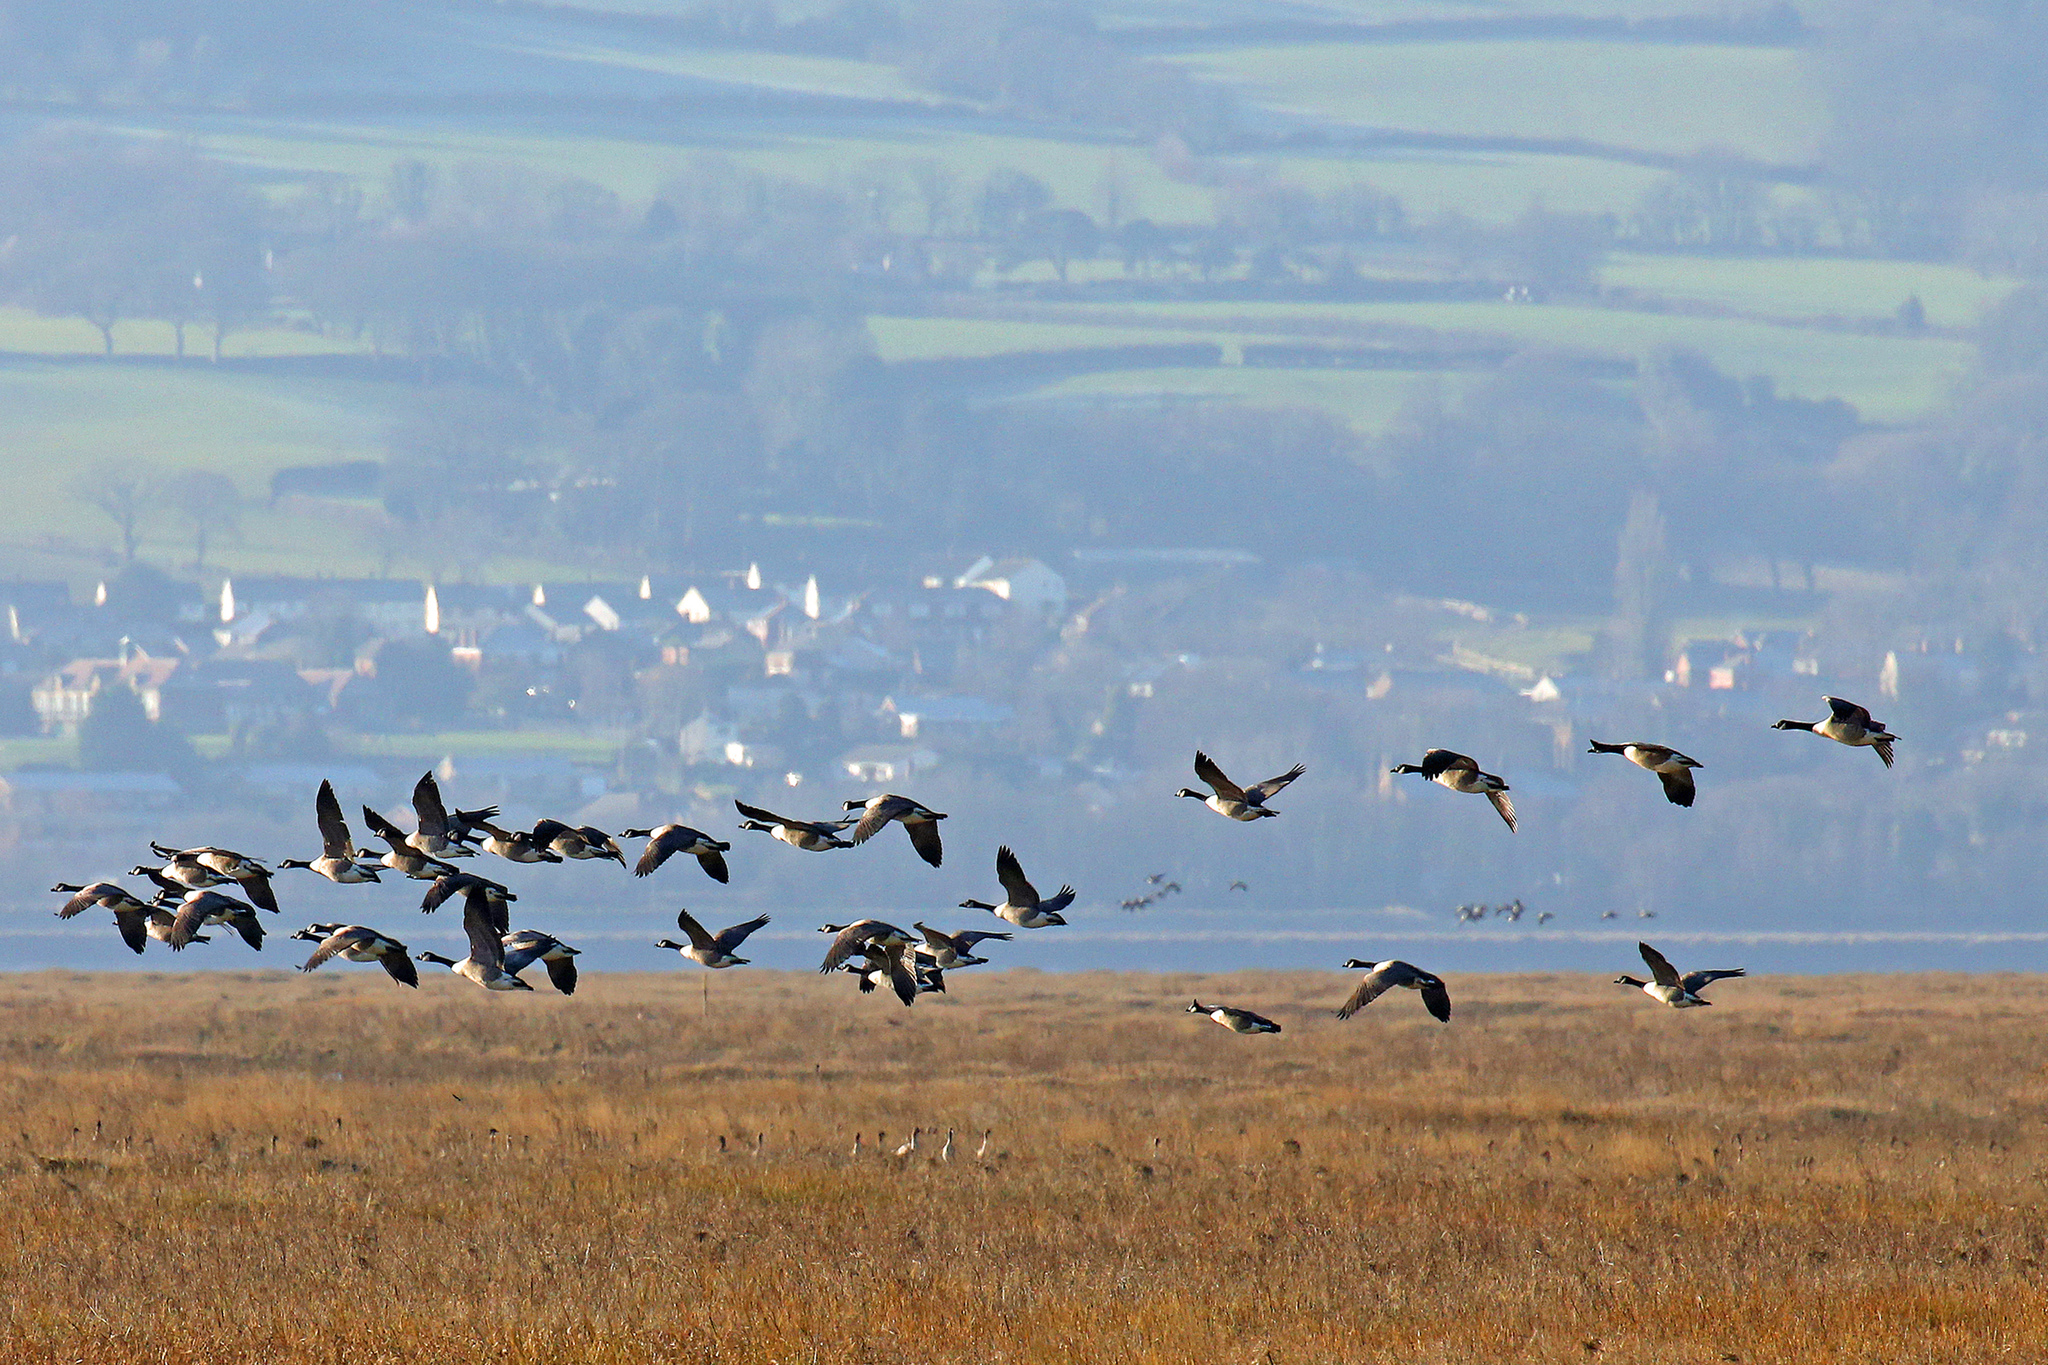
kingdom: Animalia
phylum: Chordata
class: Aves
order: Anseriformes
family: Anatidae
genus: Branta
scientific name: Branta canadensis
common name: Canada goose
